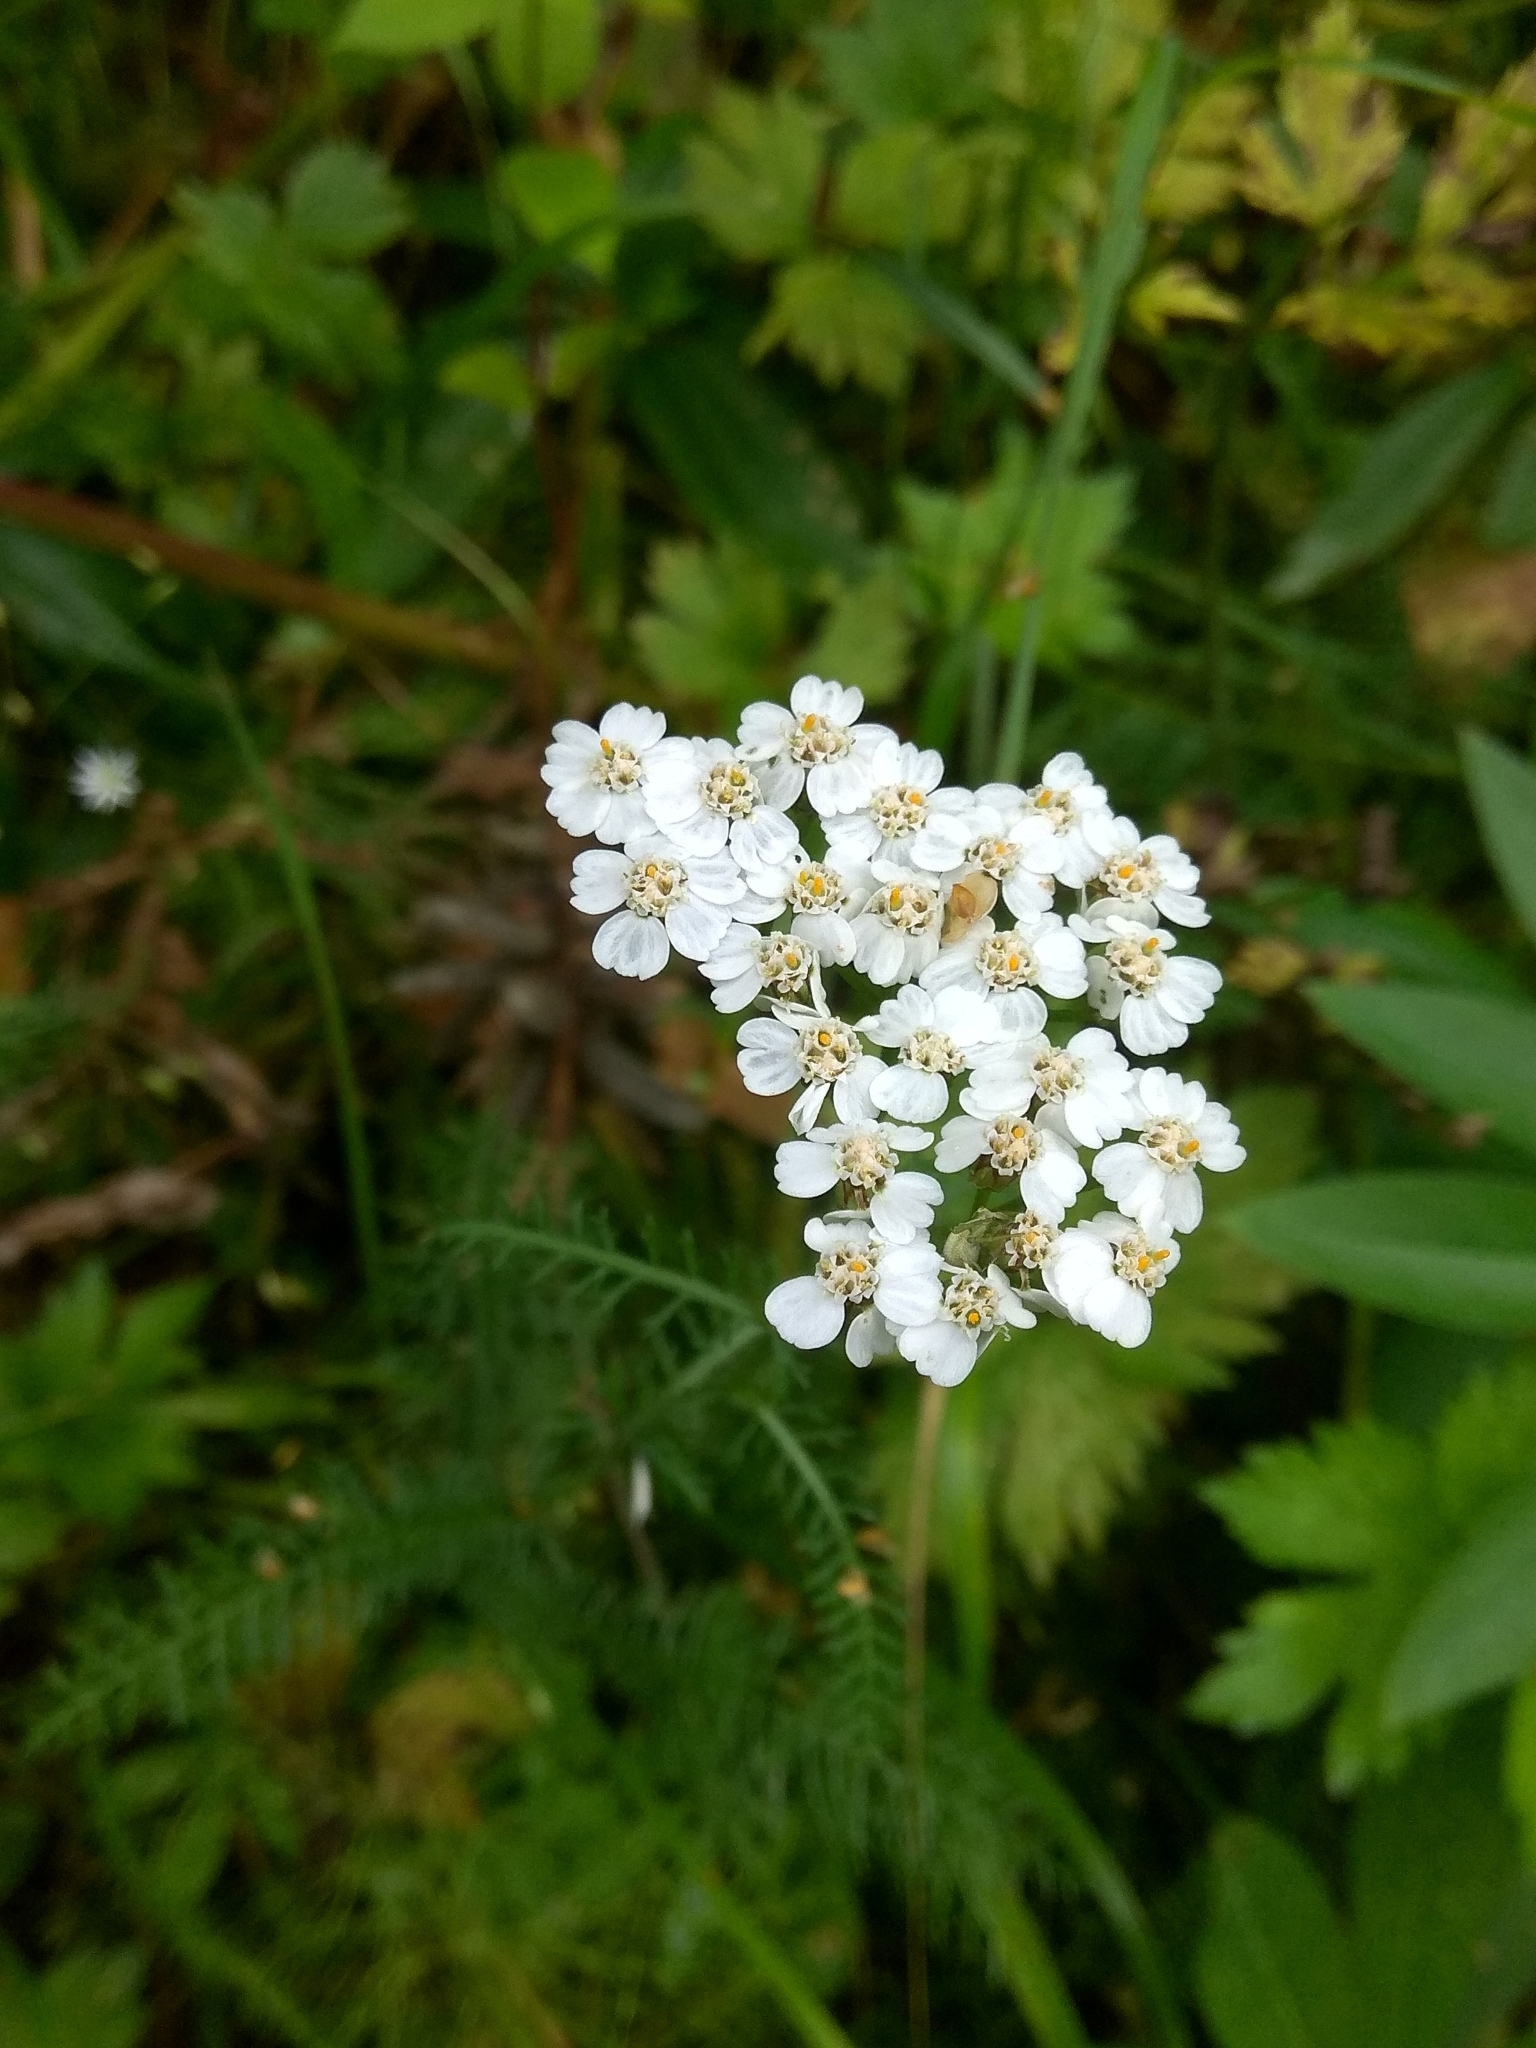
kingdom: Plantae
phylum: Tracheophyta
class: Magnoliopsida
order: Asterales
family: Asteraceae
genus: Achillea
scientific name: Achillea millefolium
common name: Yarrow
